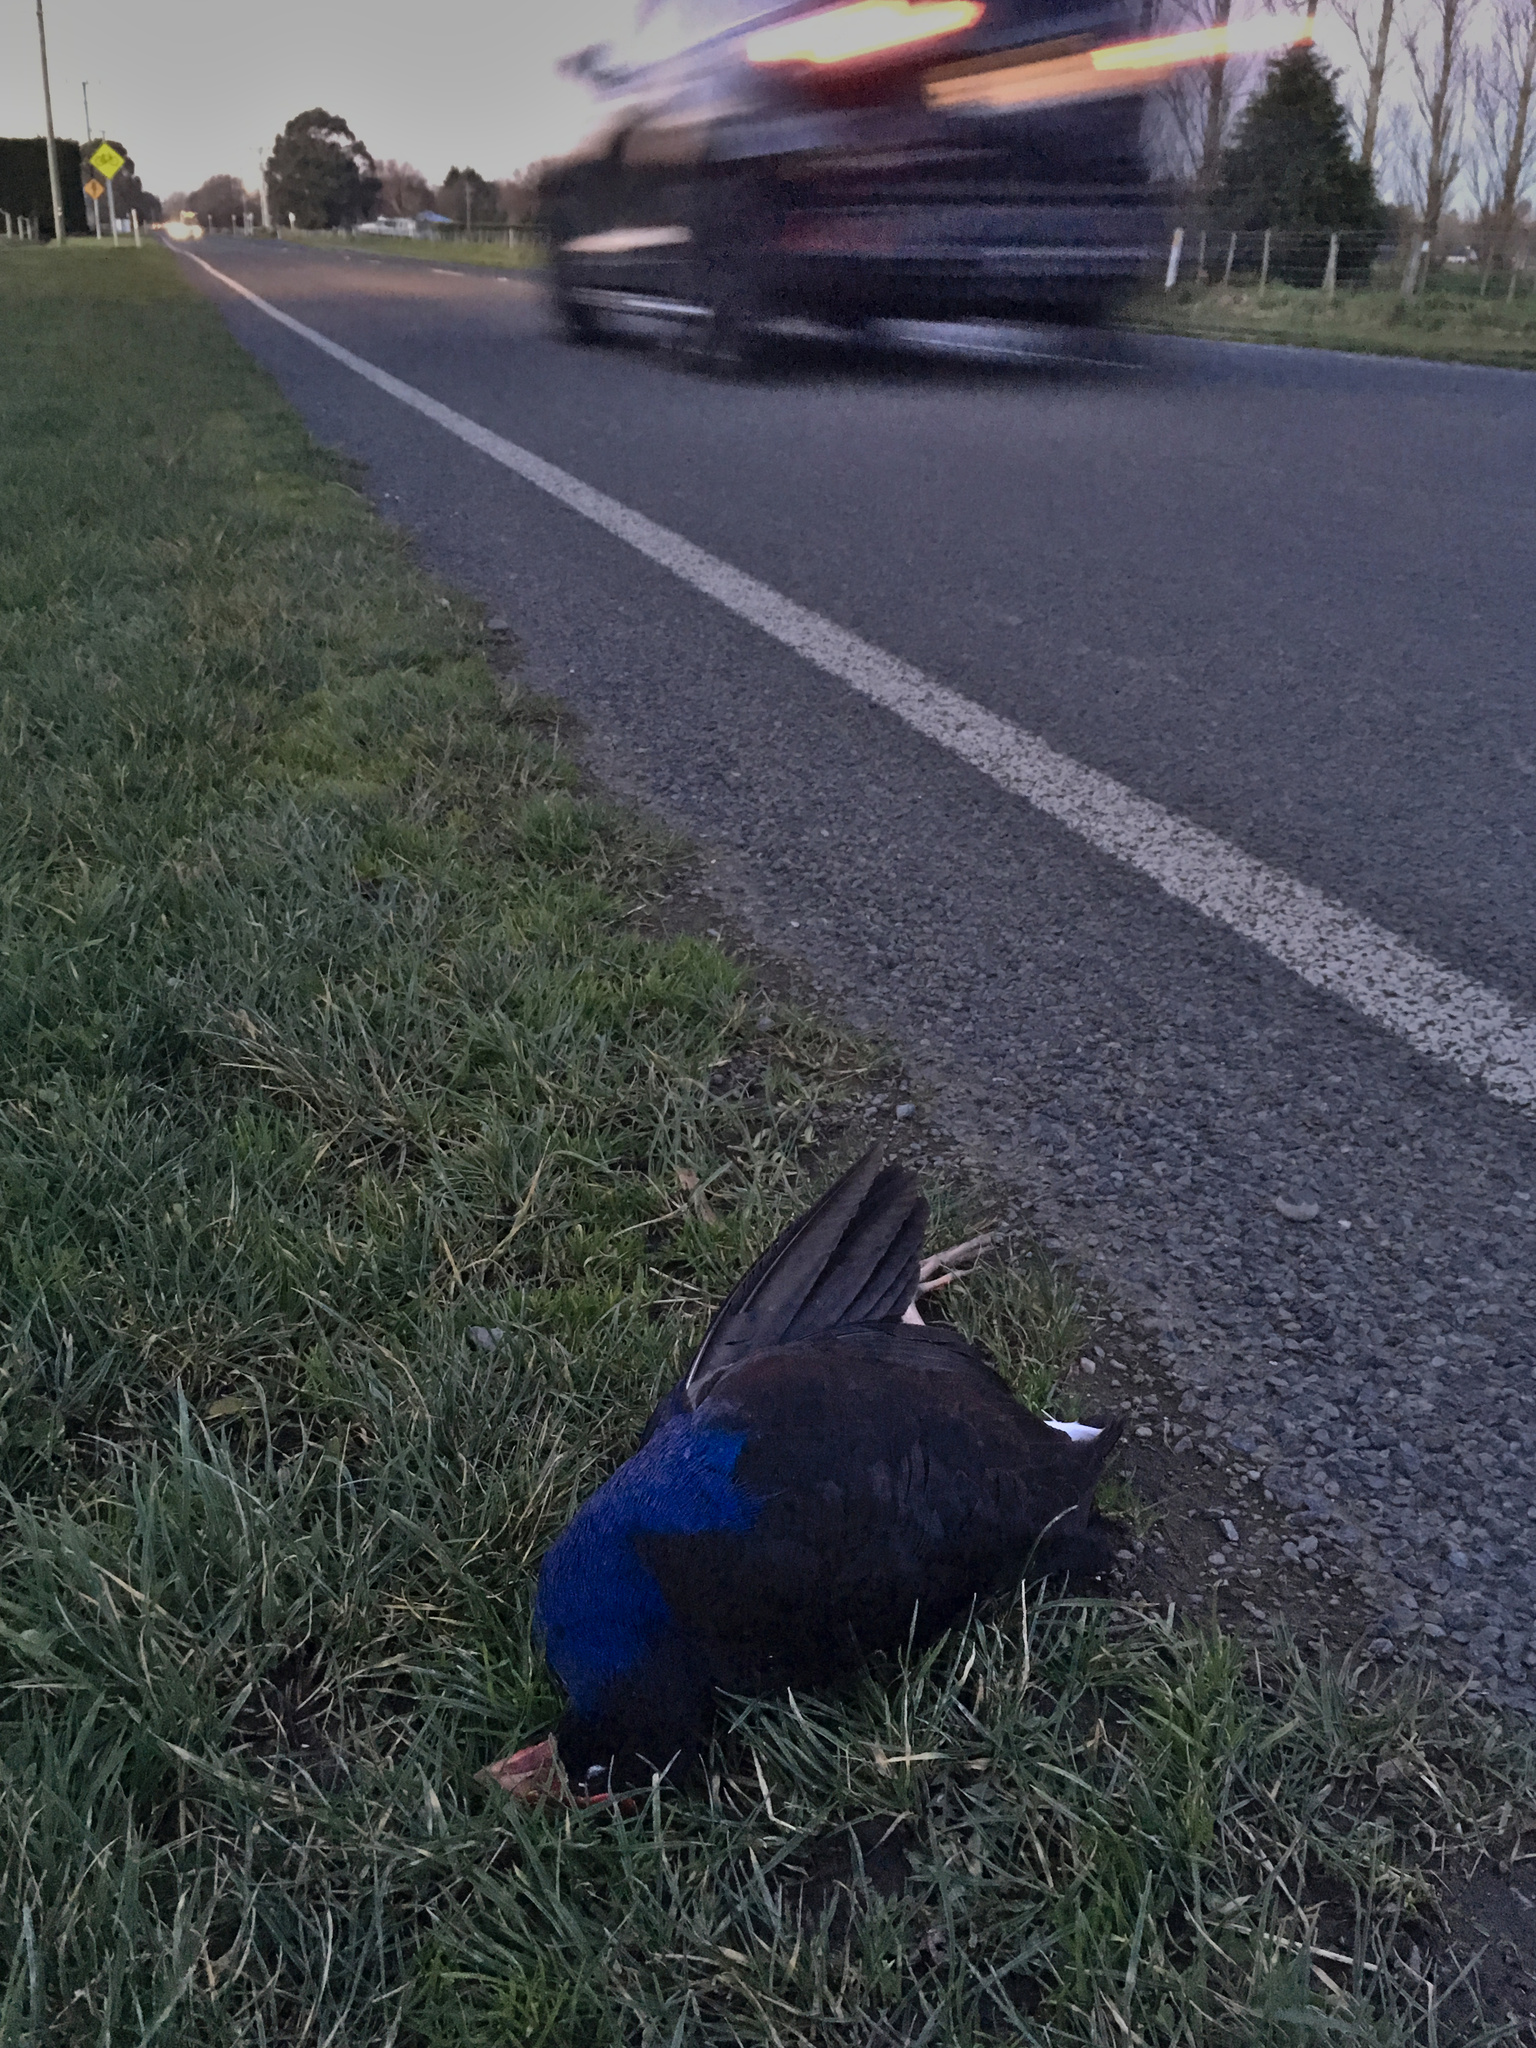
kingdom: Animalia
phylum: Chordata
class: Aves
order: Gruiformes
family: Rallidae
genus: Porphyrio
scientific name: Porphyrio melanotus
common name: Australasian swamphen
